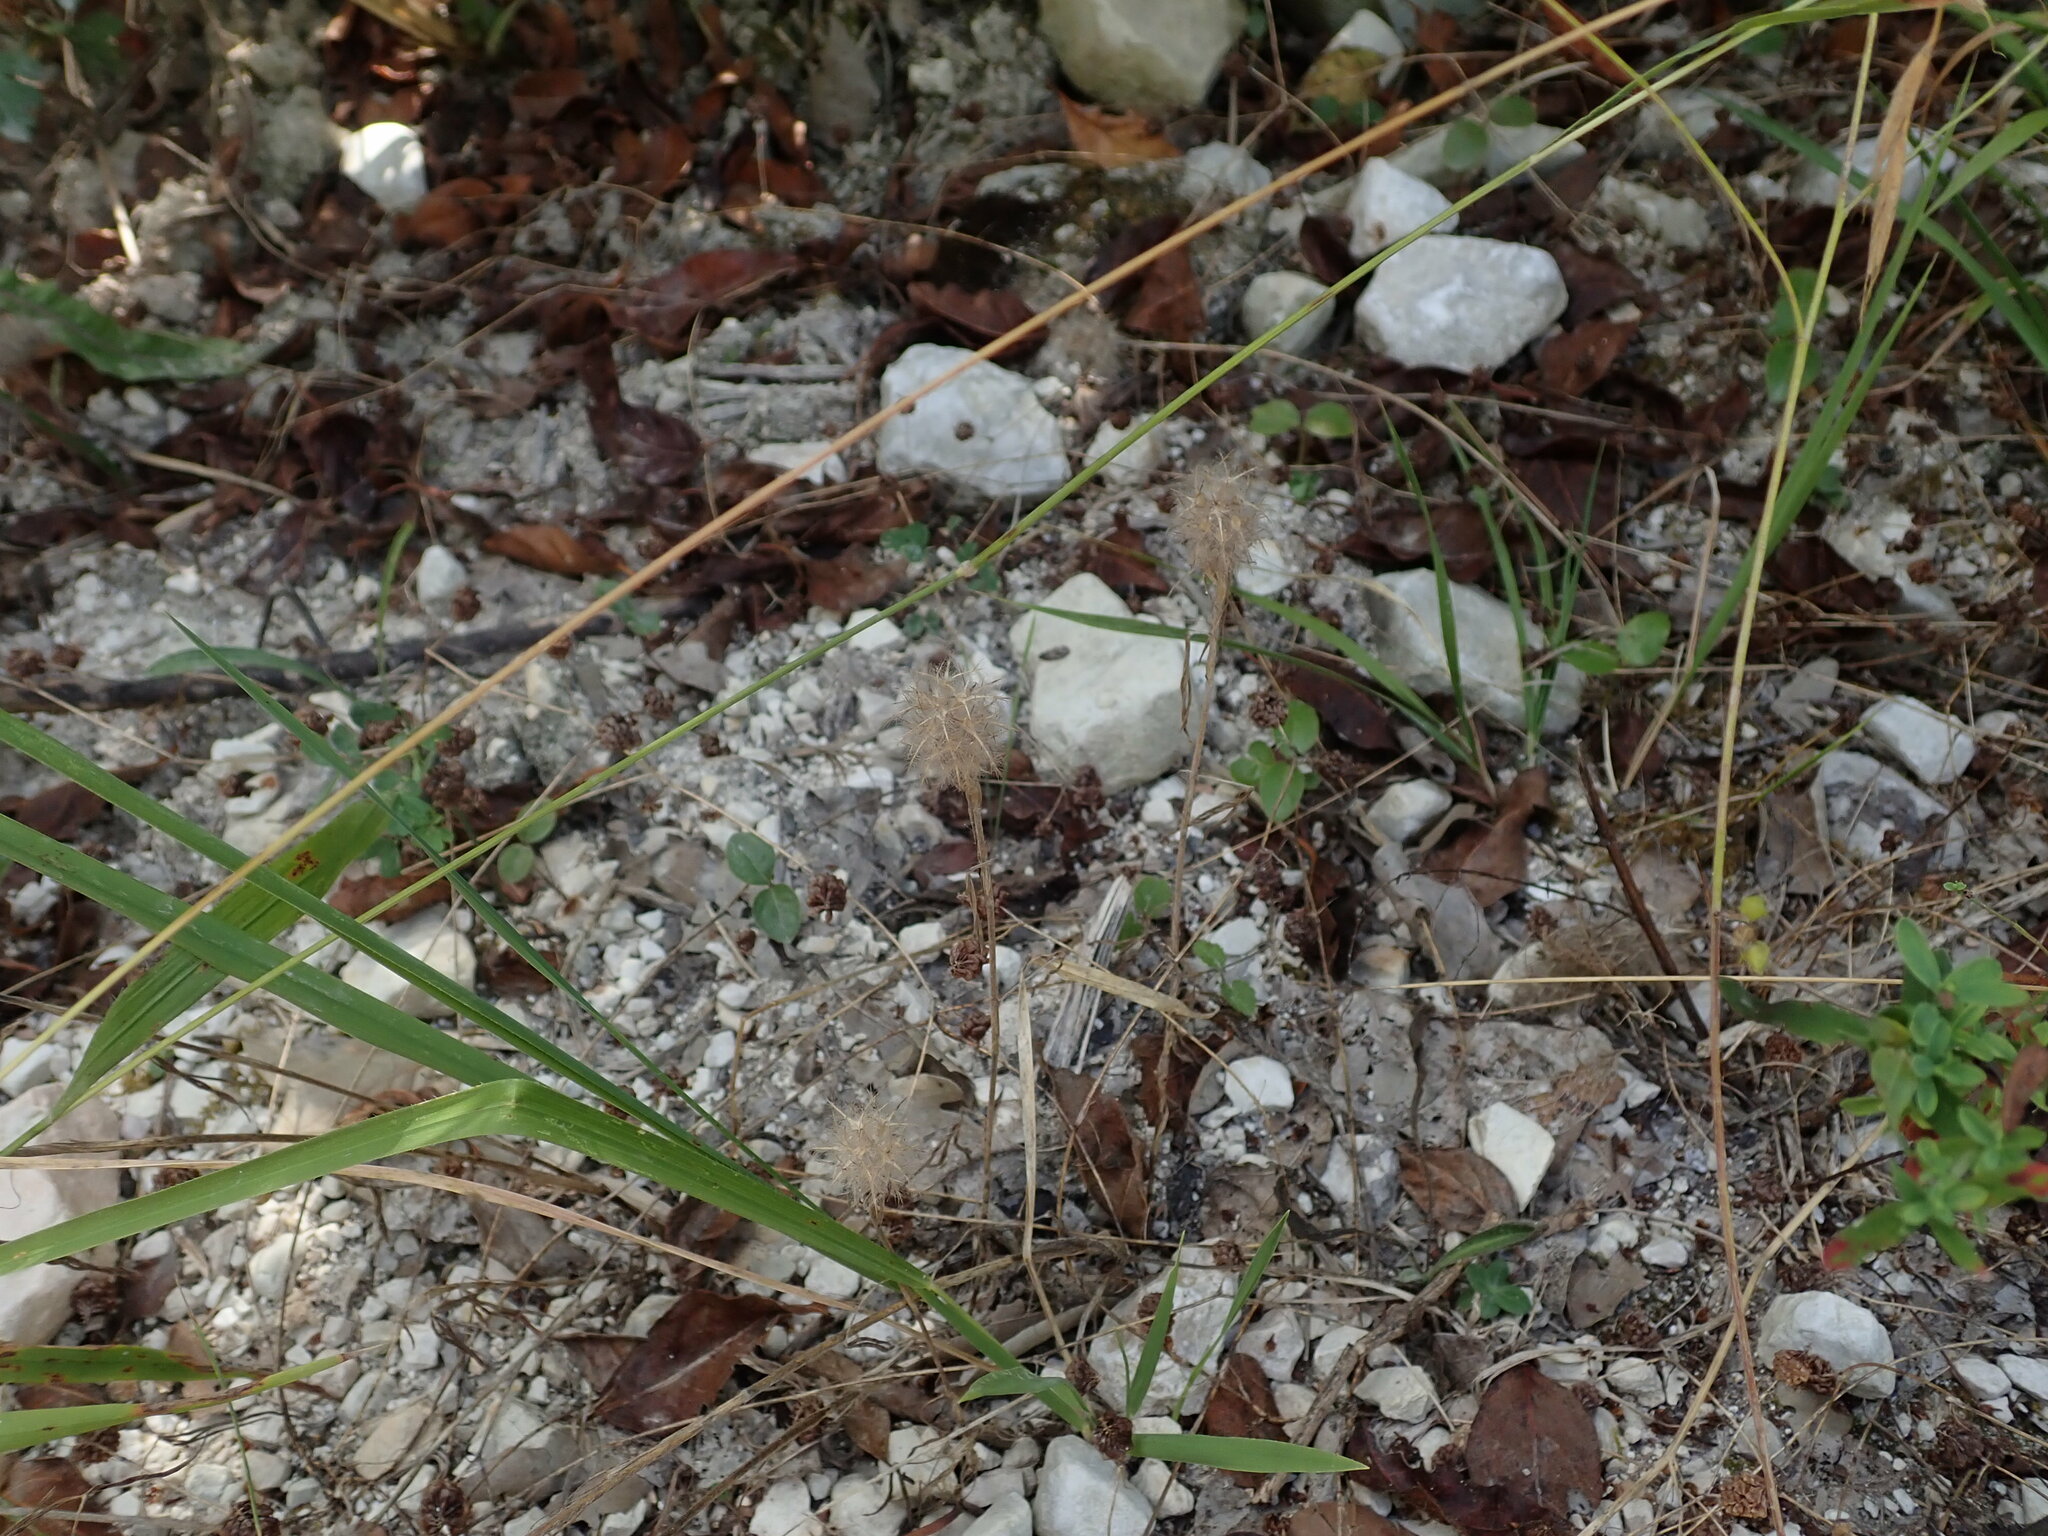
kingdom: Plantae
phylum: Tracheophyta
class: Magnoliopsida
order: Fabales
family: Fabaceae
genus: Trifolium
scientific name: Trifolium angustifolium
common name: Narrow clover
